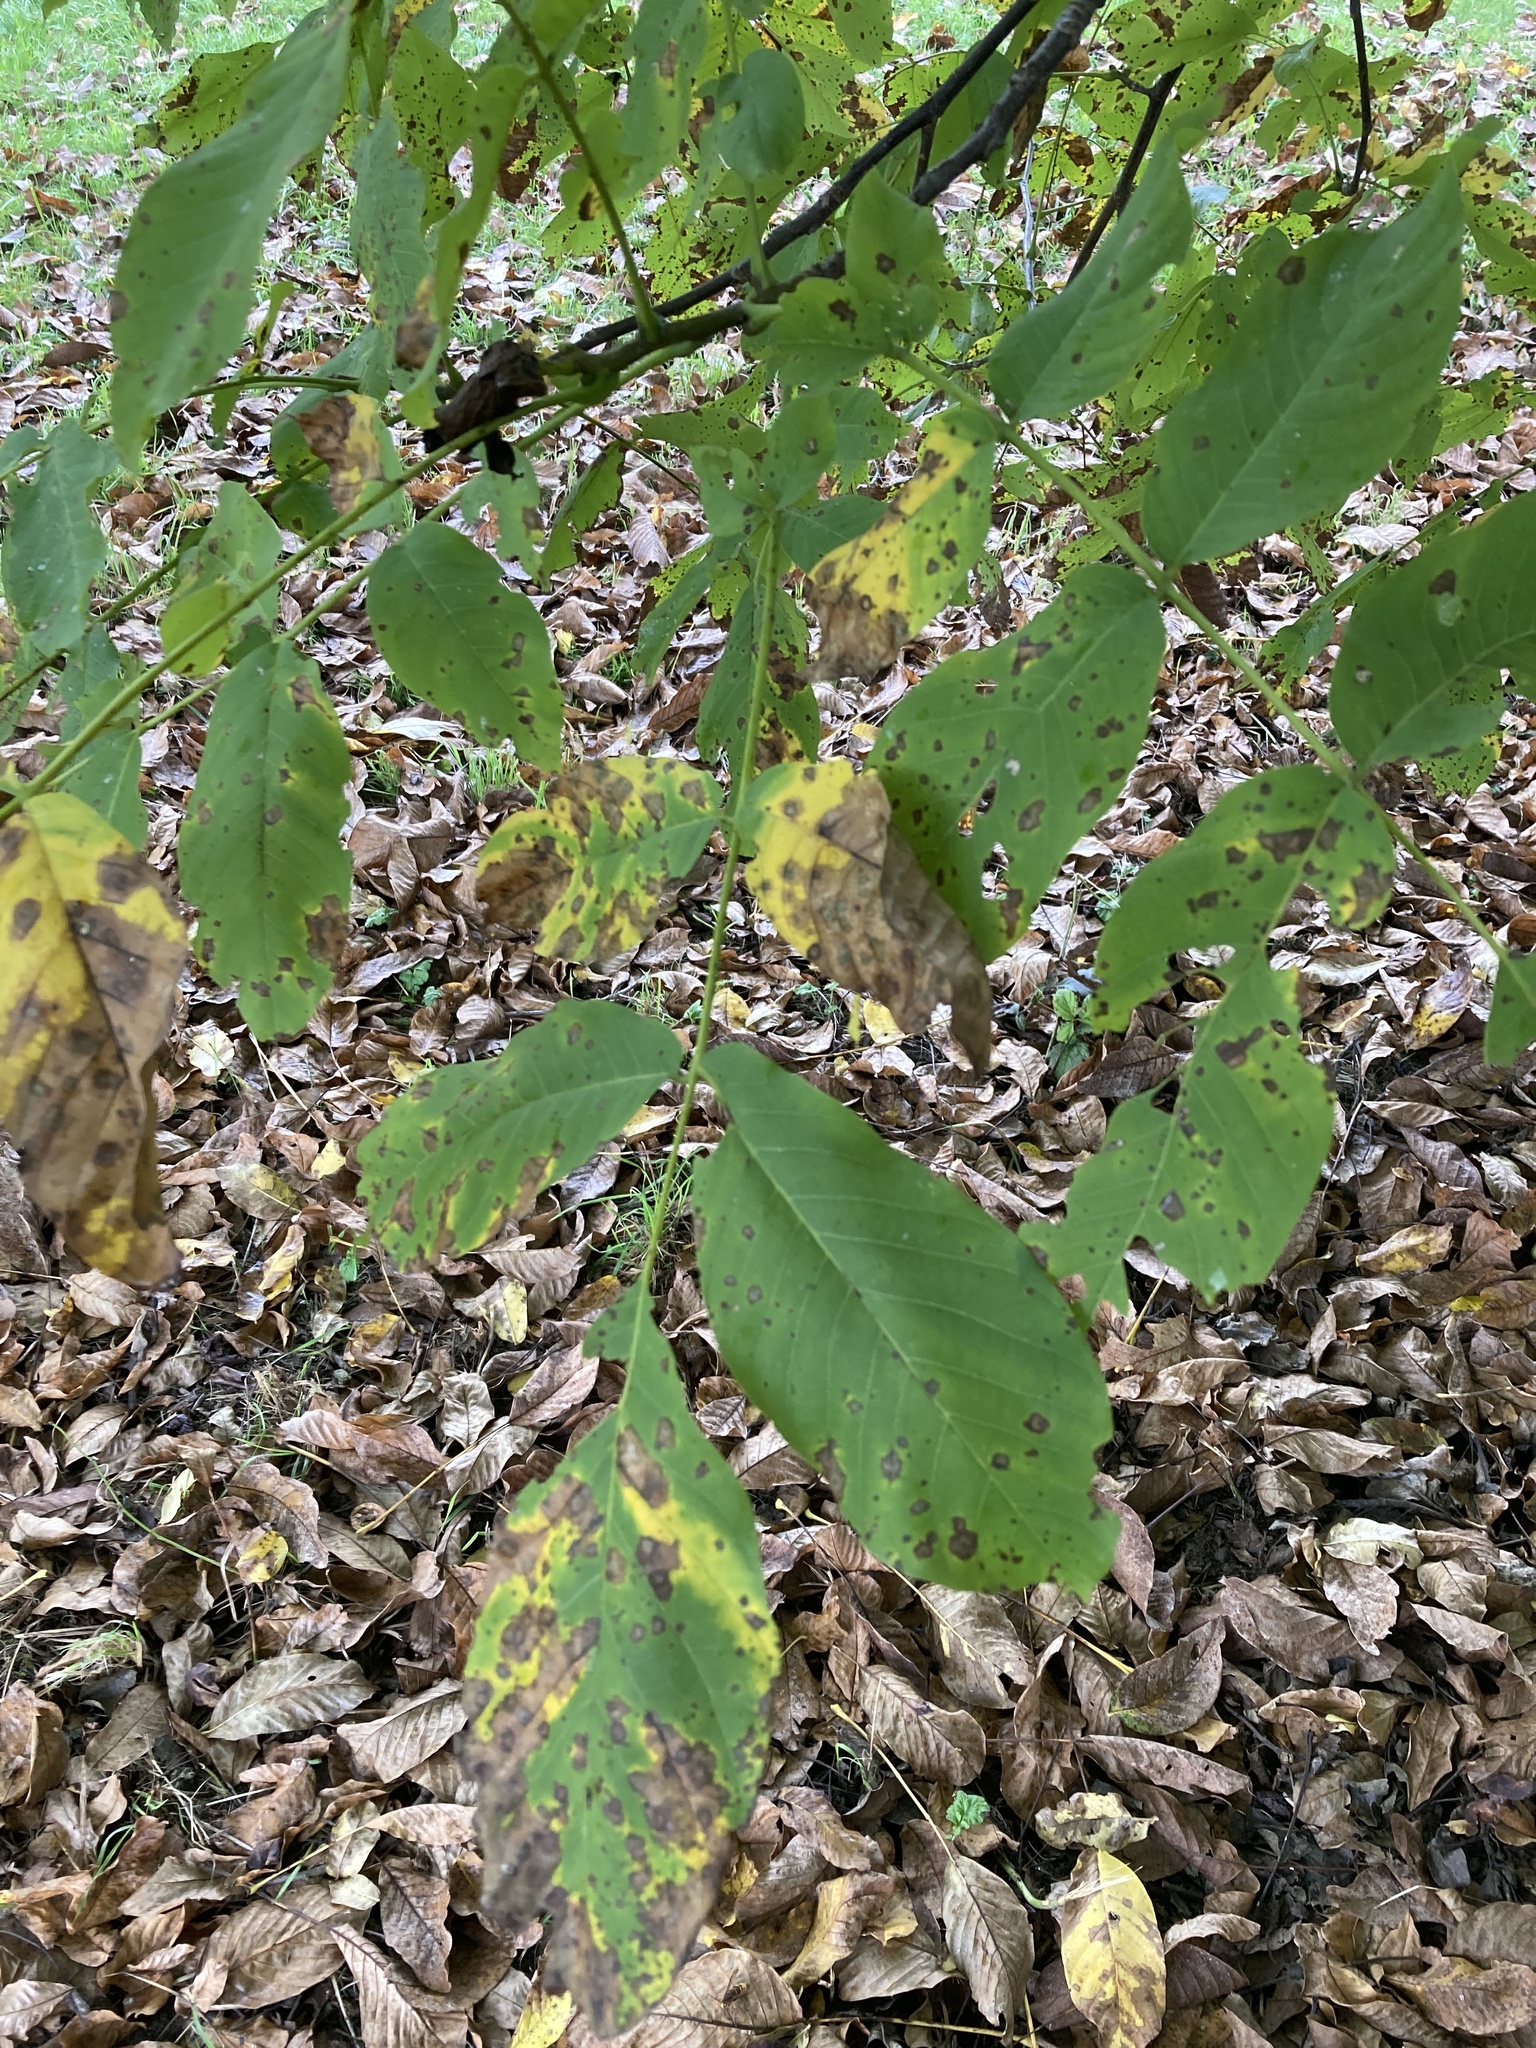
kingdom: Plantae
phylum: Tracheophyta
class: Magnoliopsida
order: Fagales
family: Juglandaceae
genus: Juglans
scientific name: Juglans regia
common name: Walnut
